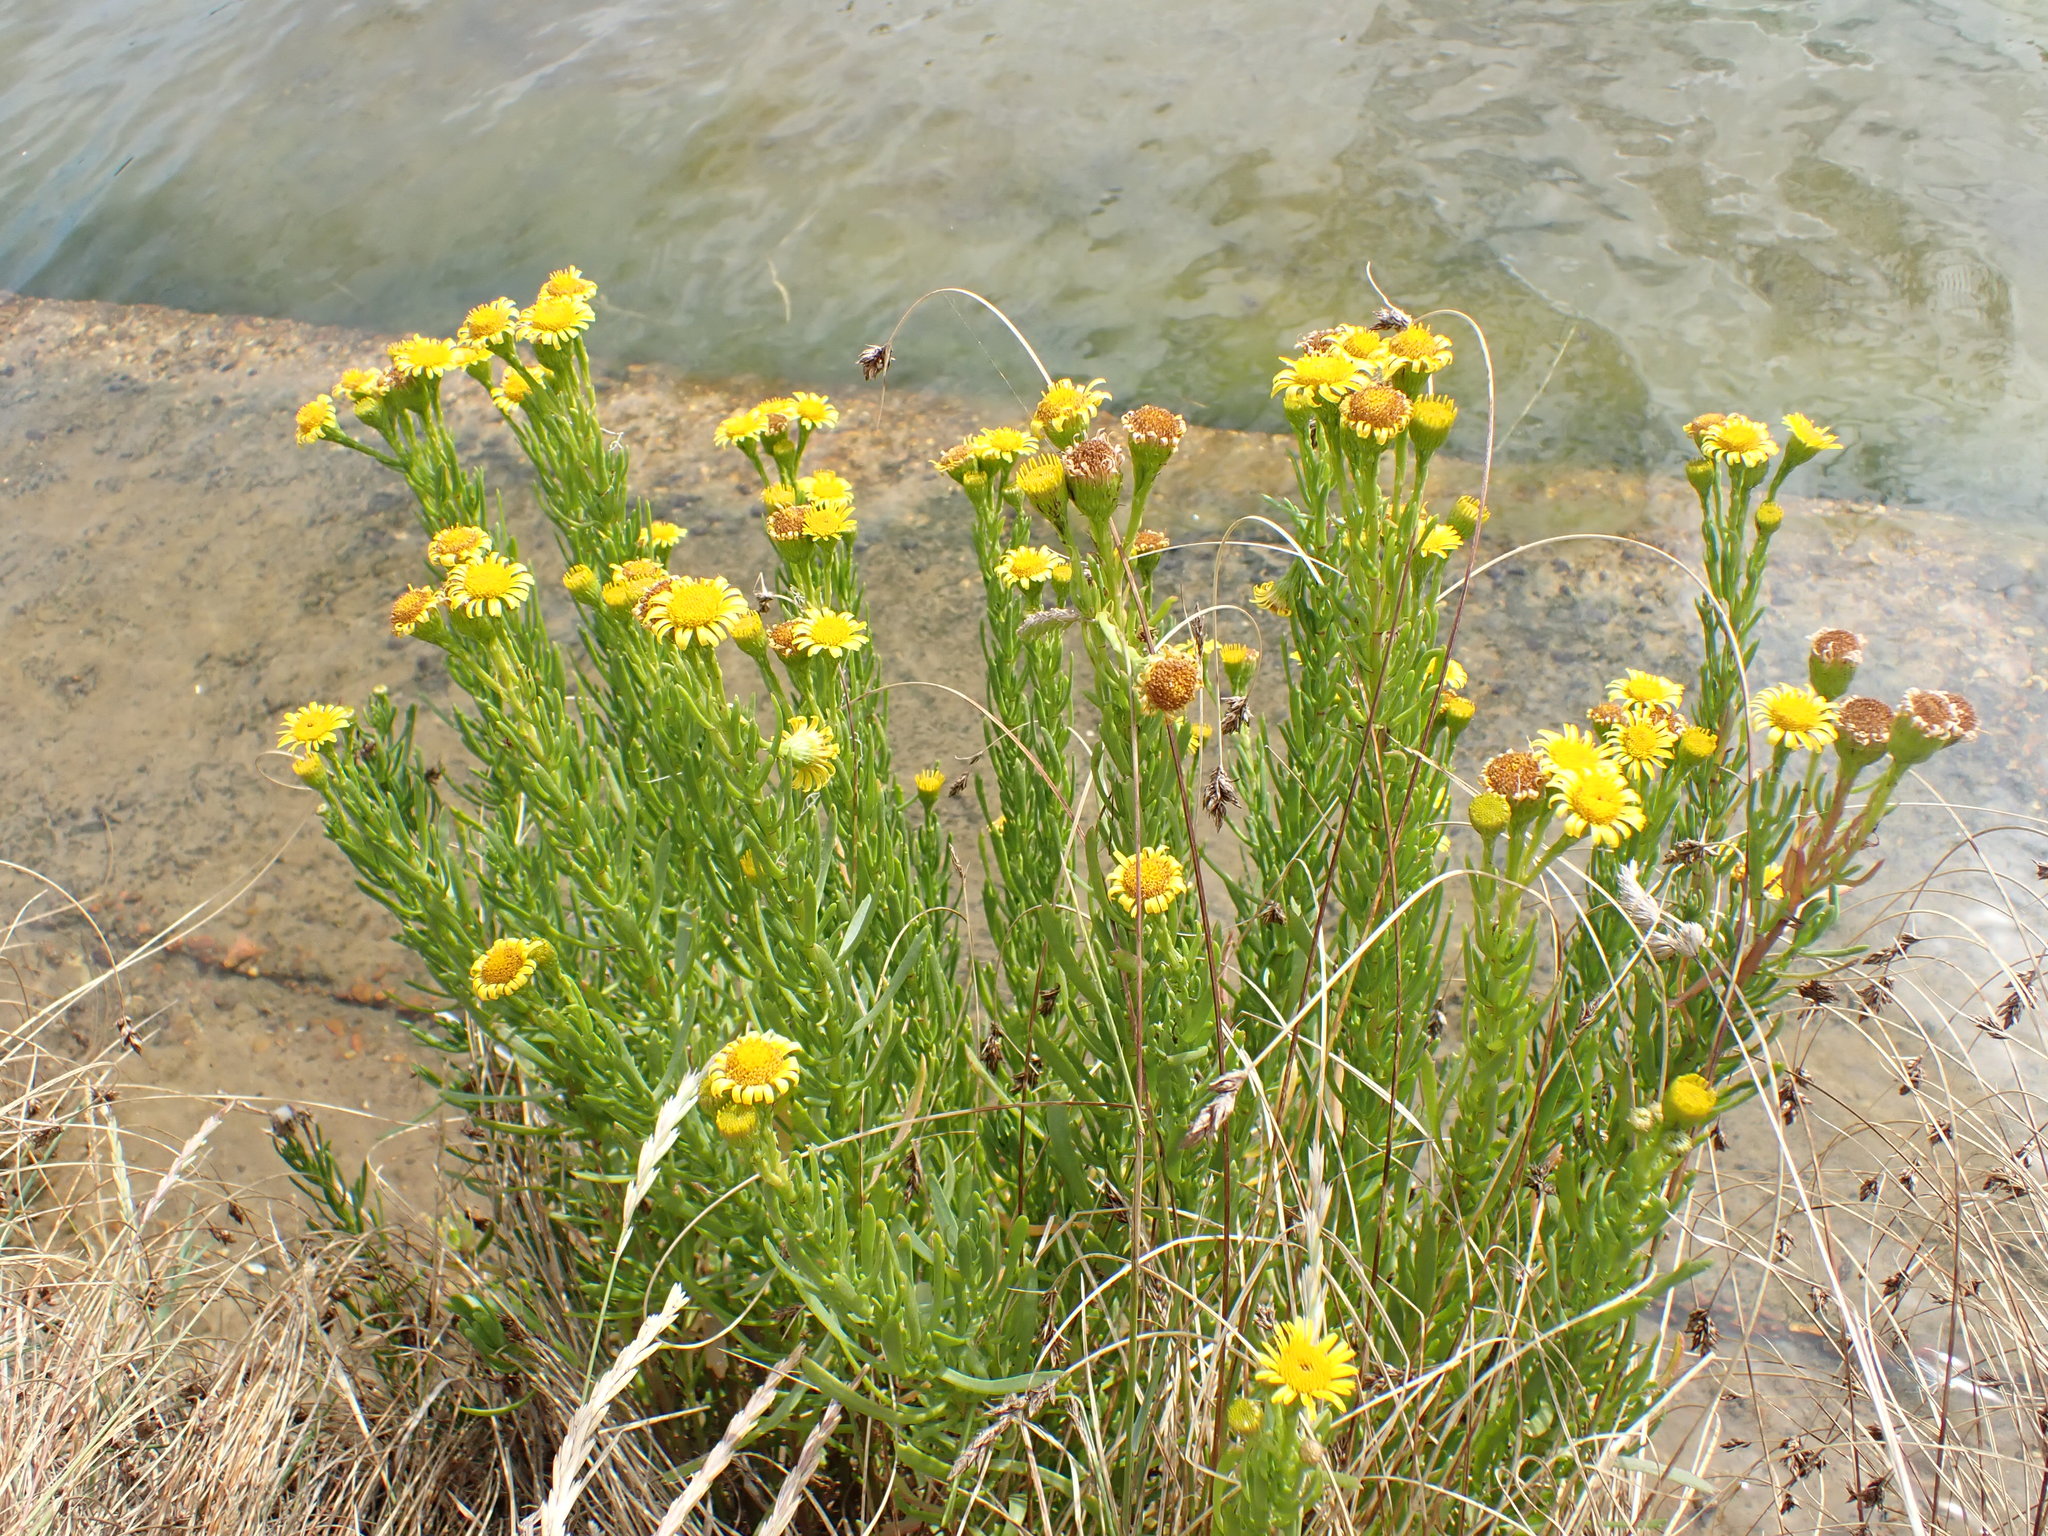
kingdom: Plantae
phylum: Tracheophyta
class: Magnoliopsida
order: Asterales
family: Asteraceae
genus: Limbarda
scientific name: Limbarda crithmoides
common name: Golden samphire
